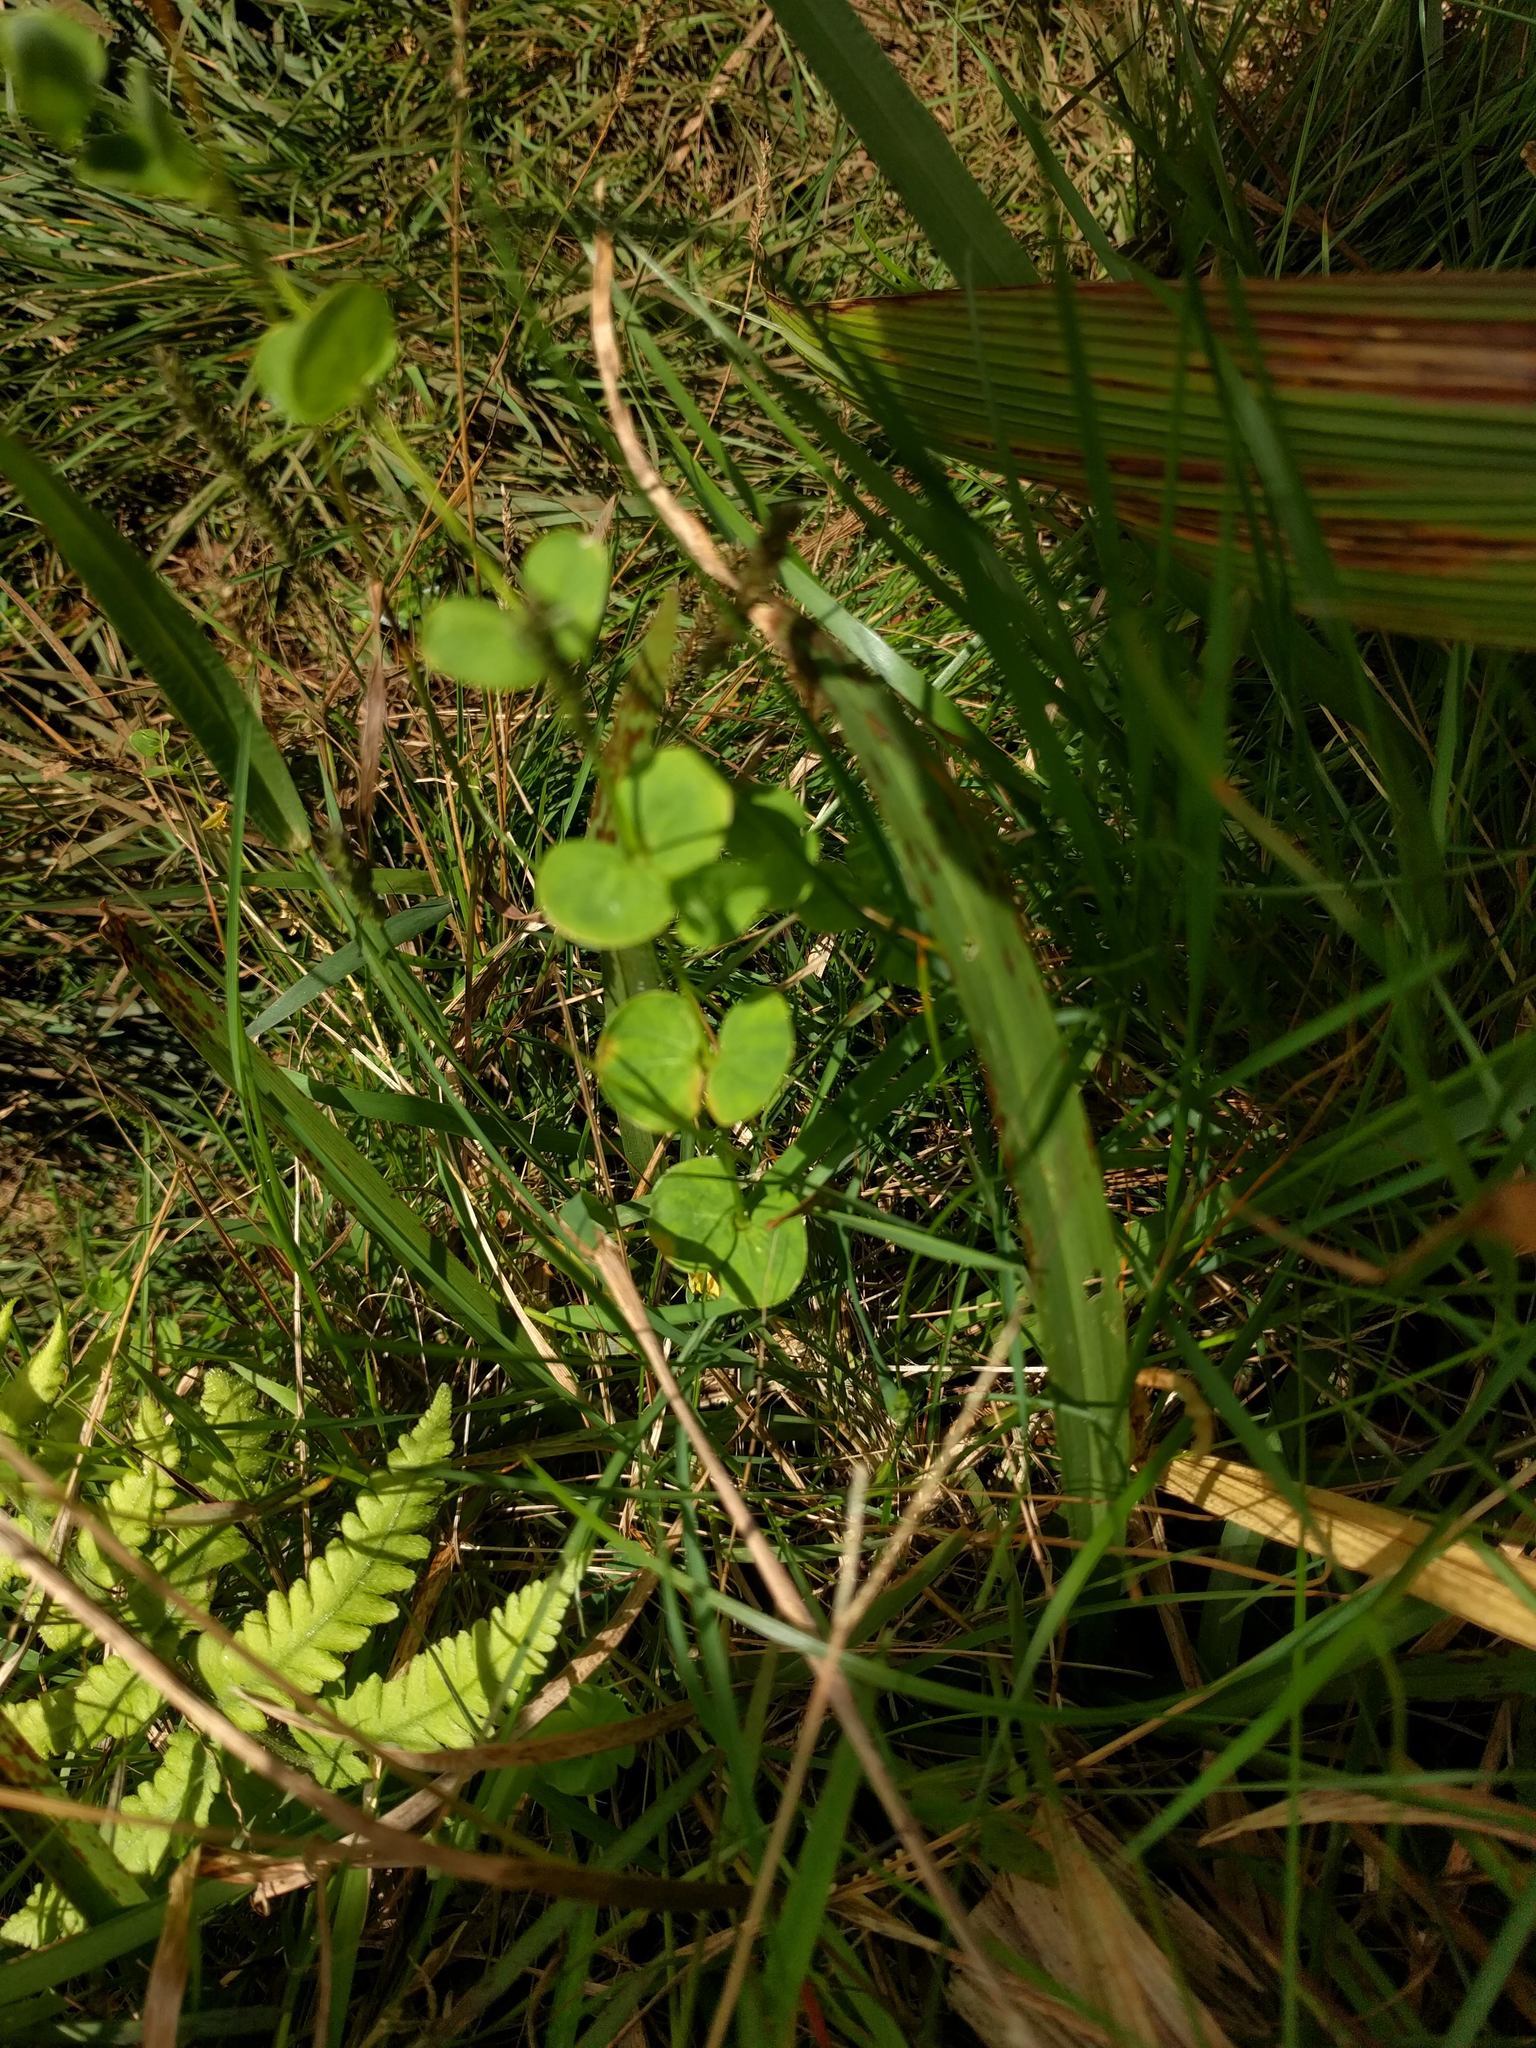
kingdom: Plantae
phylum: Tracheophyta
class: Magnoliopsida
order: Caryophyllales
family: Caryophyllaceae
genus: Drymaria
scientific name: Drymaria cordata
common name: Whitesnow
